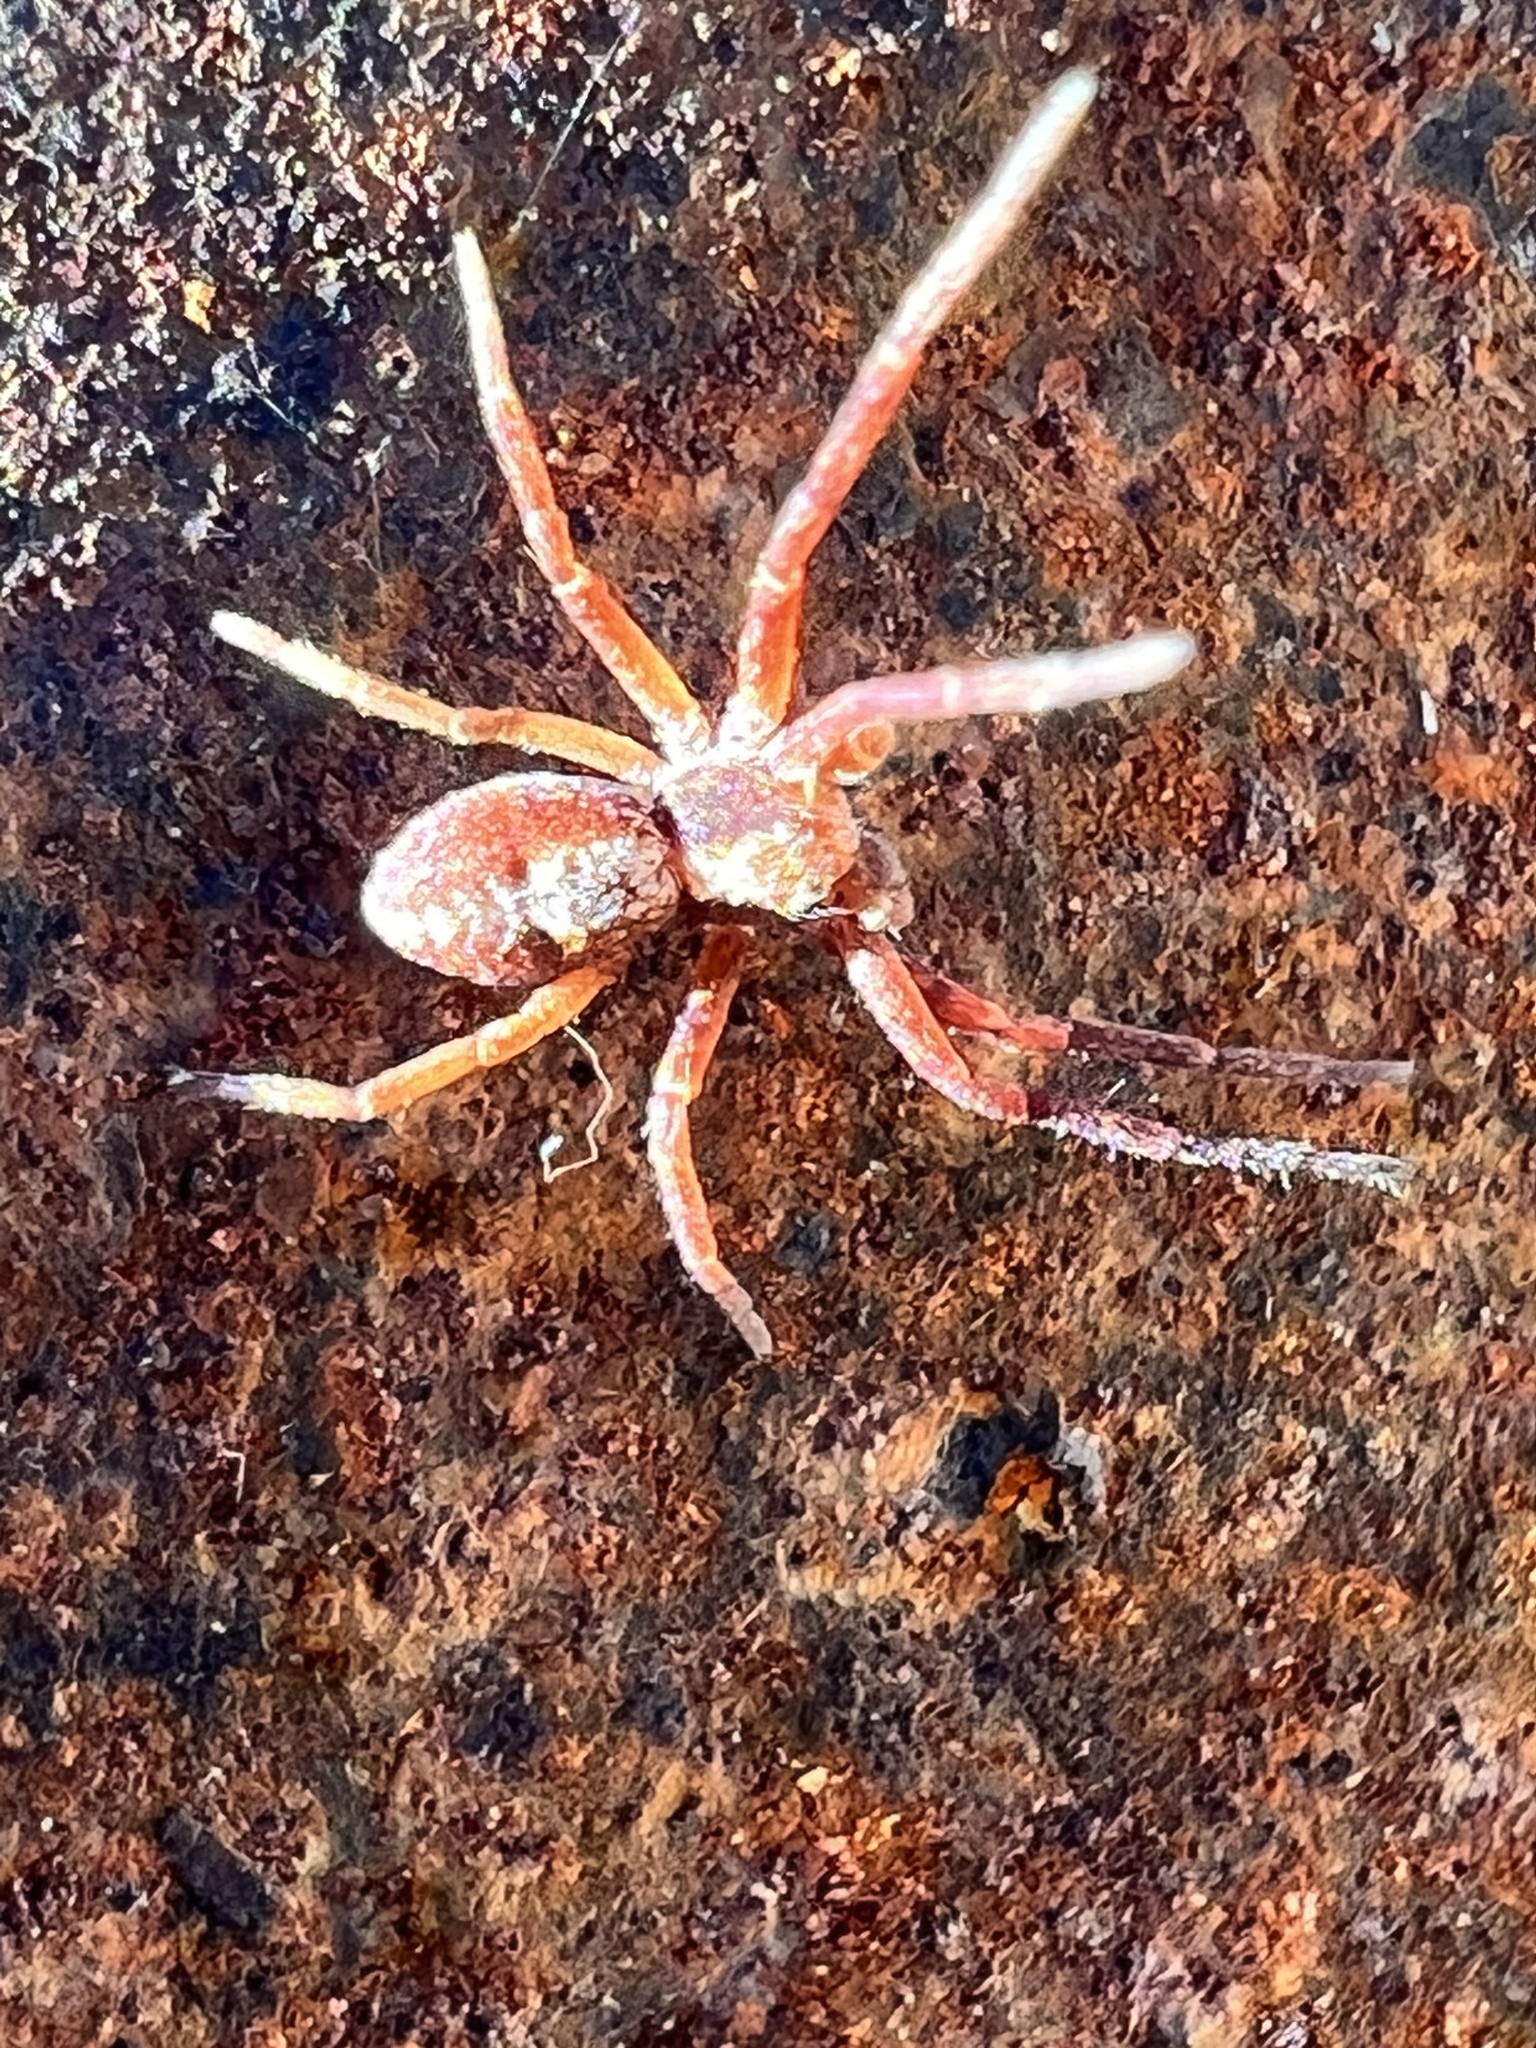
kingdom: Animalia
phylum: Arthropoda
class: Arachnida
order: Araneae
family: Philodromidae
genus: Philodromus
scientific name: Philodromus rufus
